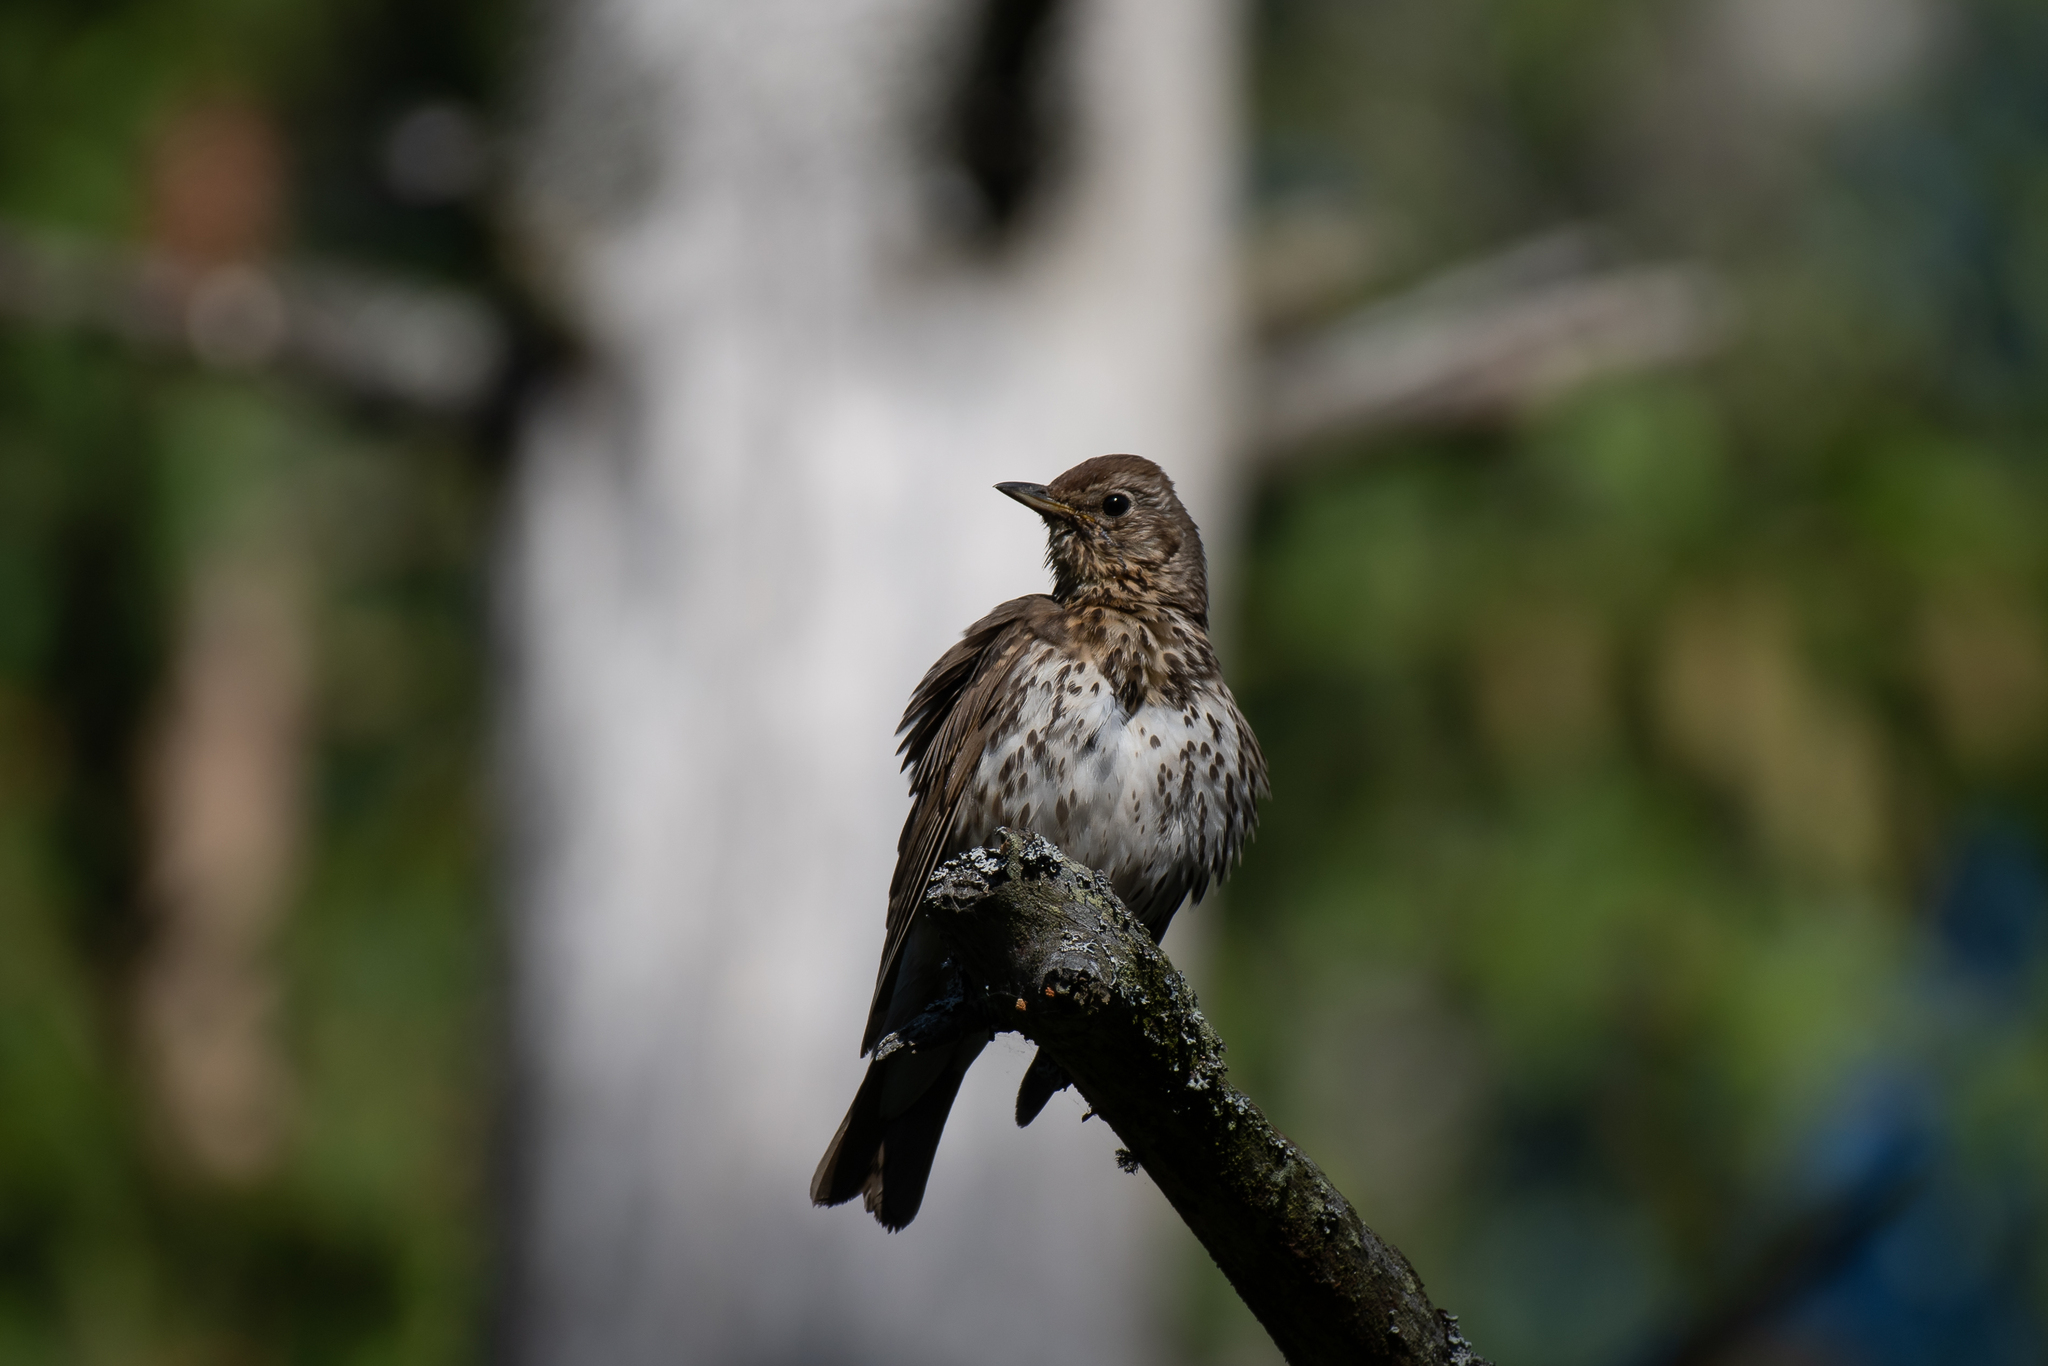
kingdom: Animalia
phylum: Chordata
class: Aves
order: Passeriformes
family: Turdidae
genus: Turdus
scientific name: Turdus philomelos
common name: Song thrush
